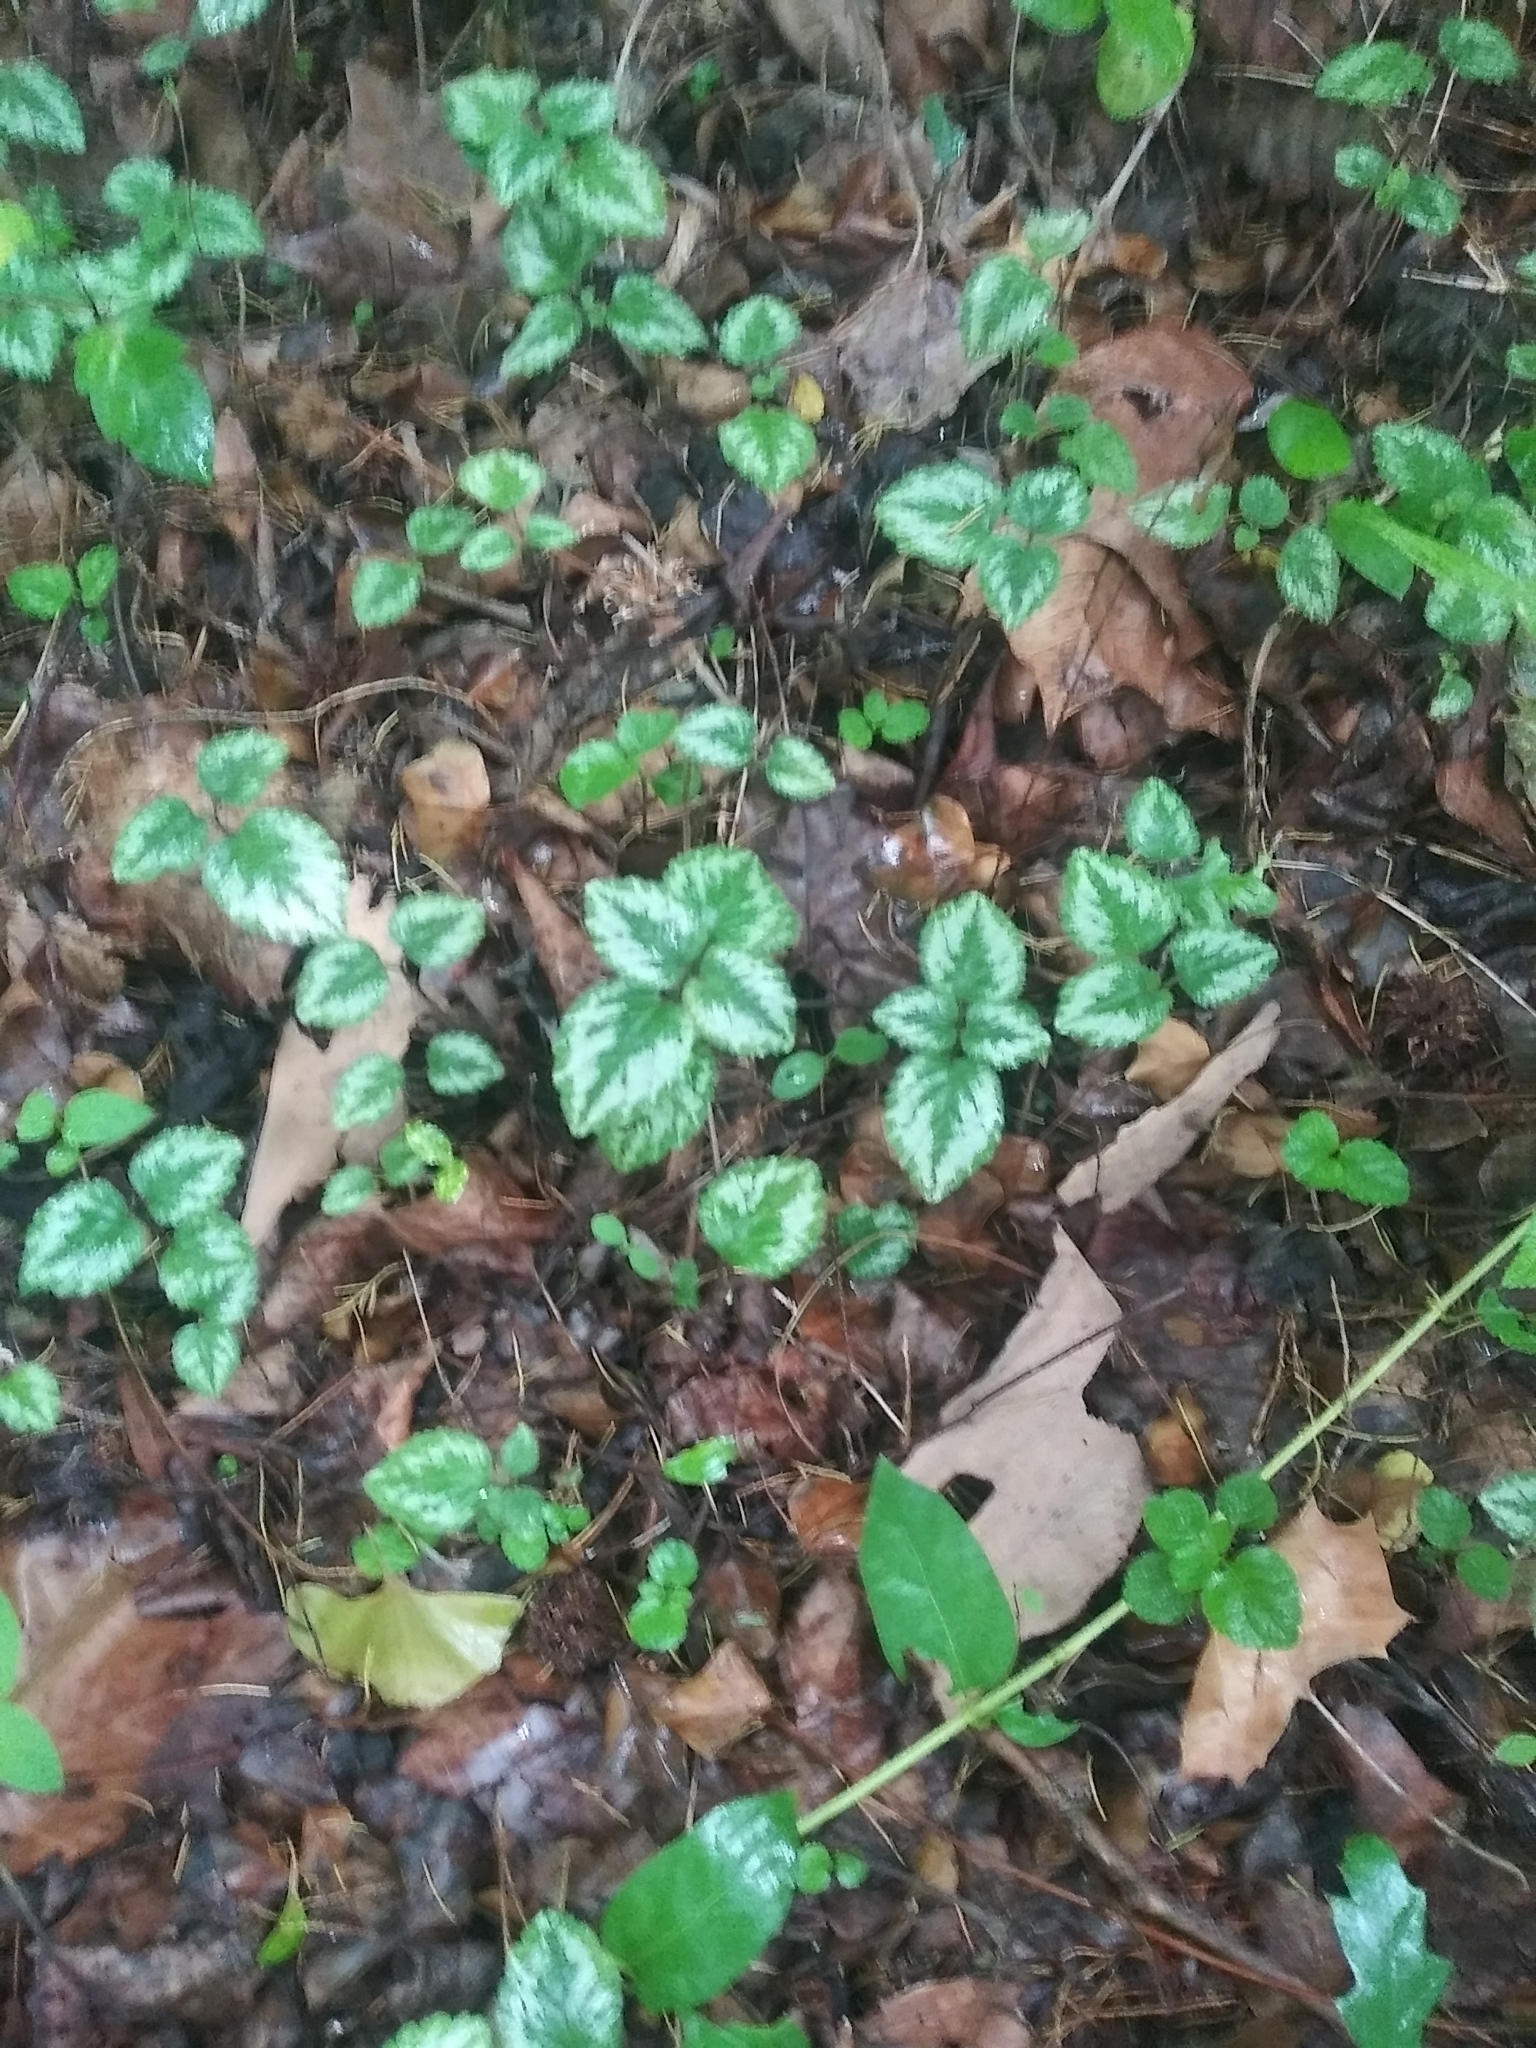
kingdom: Plantae
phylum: Tracheophyta
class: Magnoliopsida
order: Lamiales
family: Lamiaceae
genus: Lamium
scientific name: Lamium galeobdolon
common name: Yellow archangel
